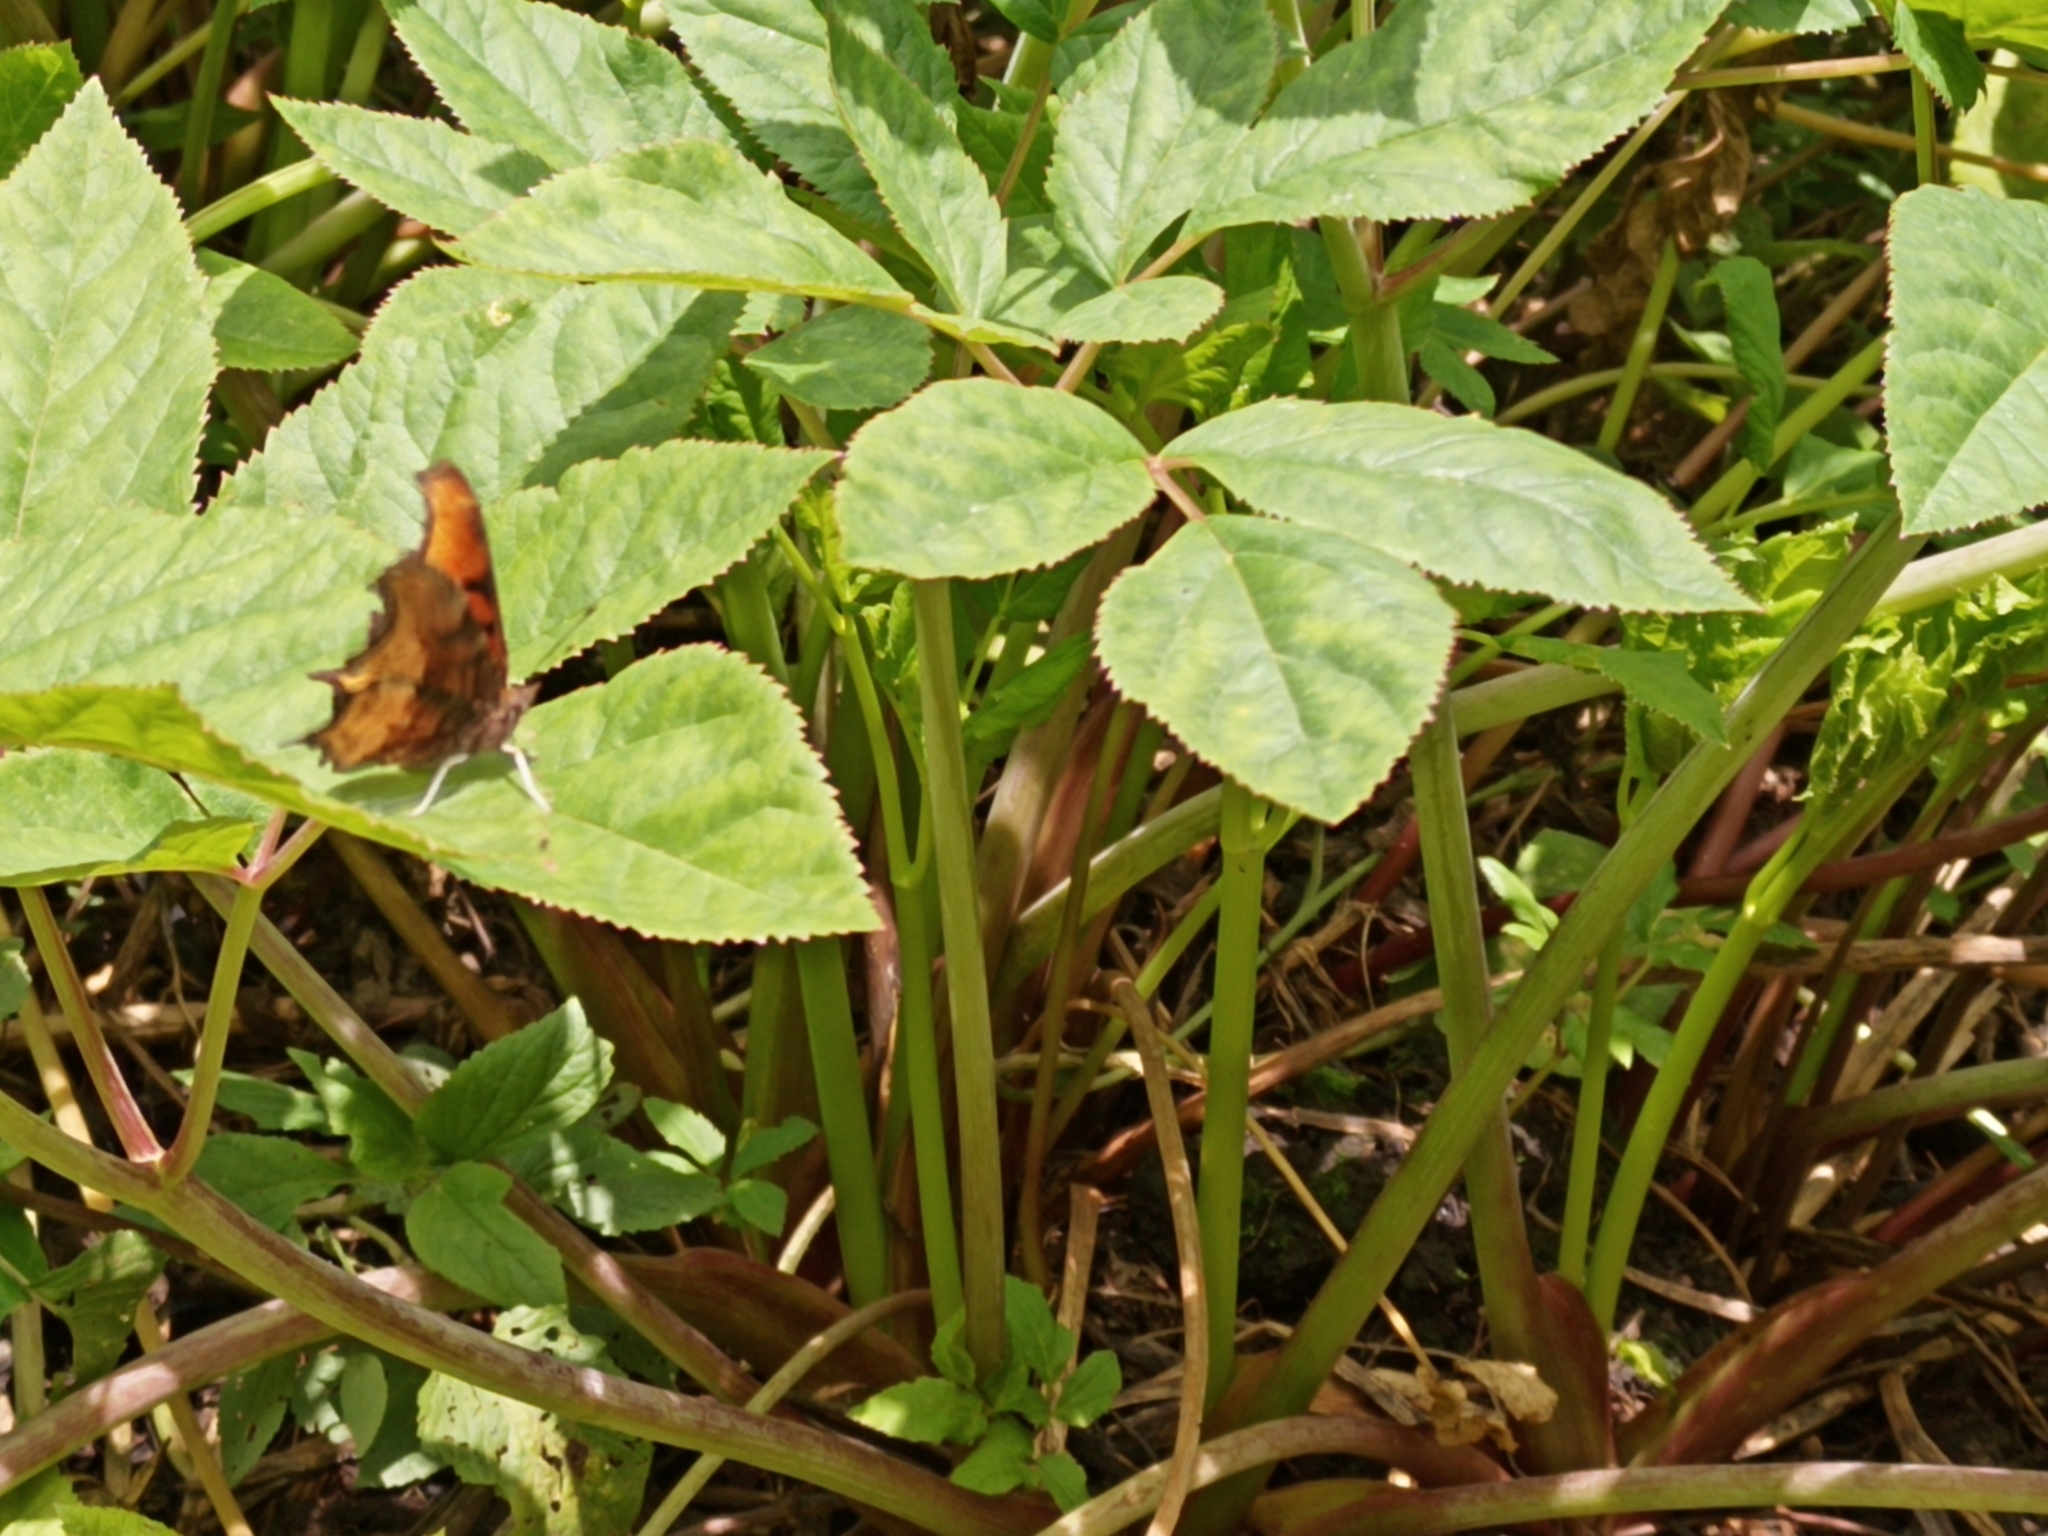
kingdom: Animalia
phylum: Arthropoda
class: Insecta
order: Lepidoptera
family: Nymphalidae
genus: Polygonia
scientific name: Polygonia haroldi
